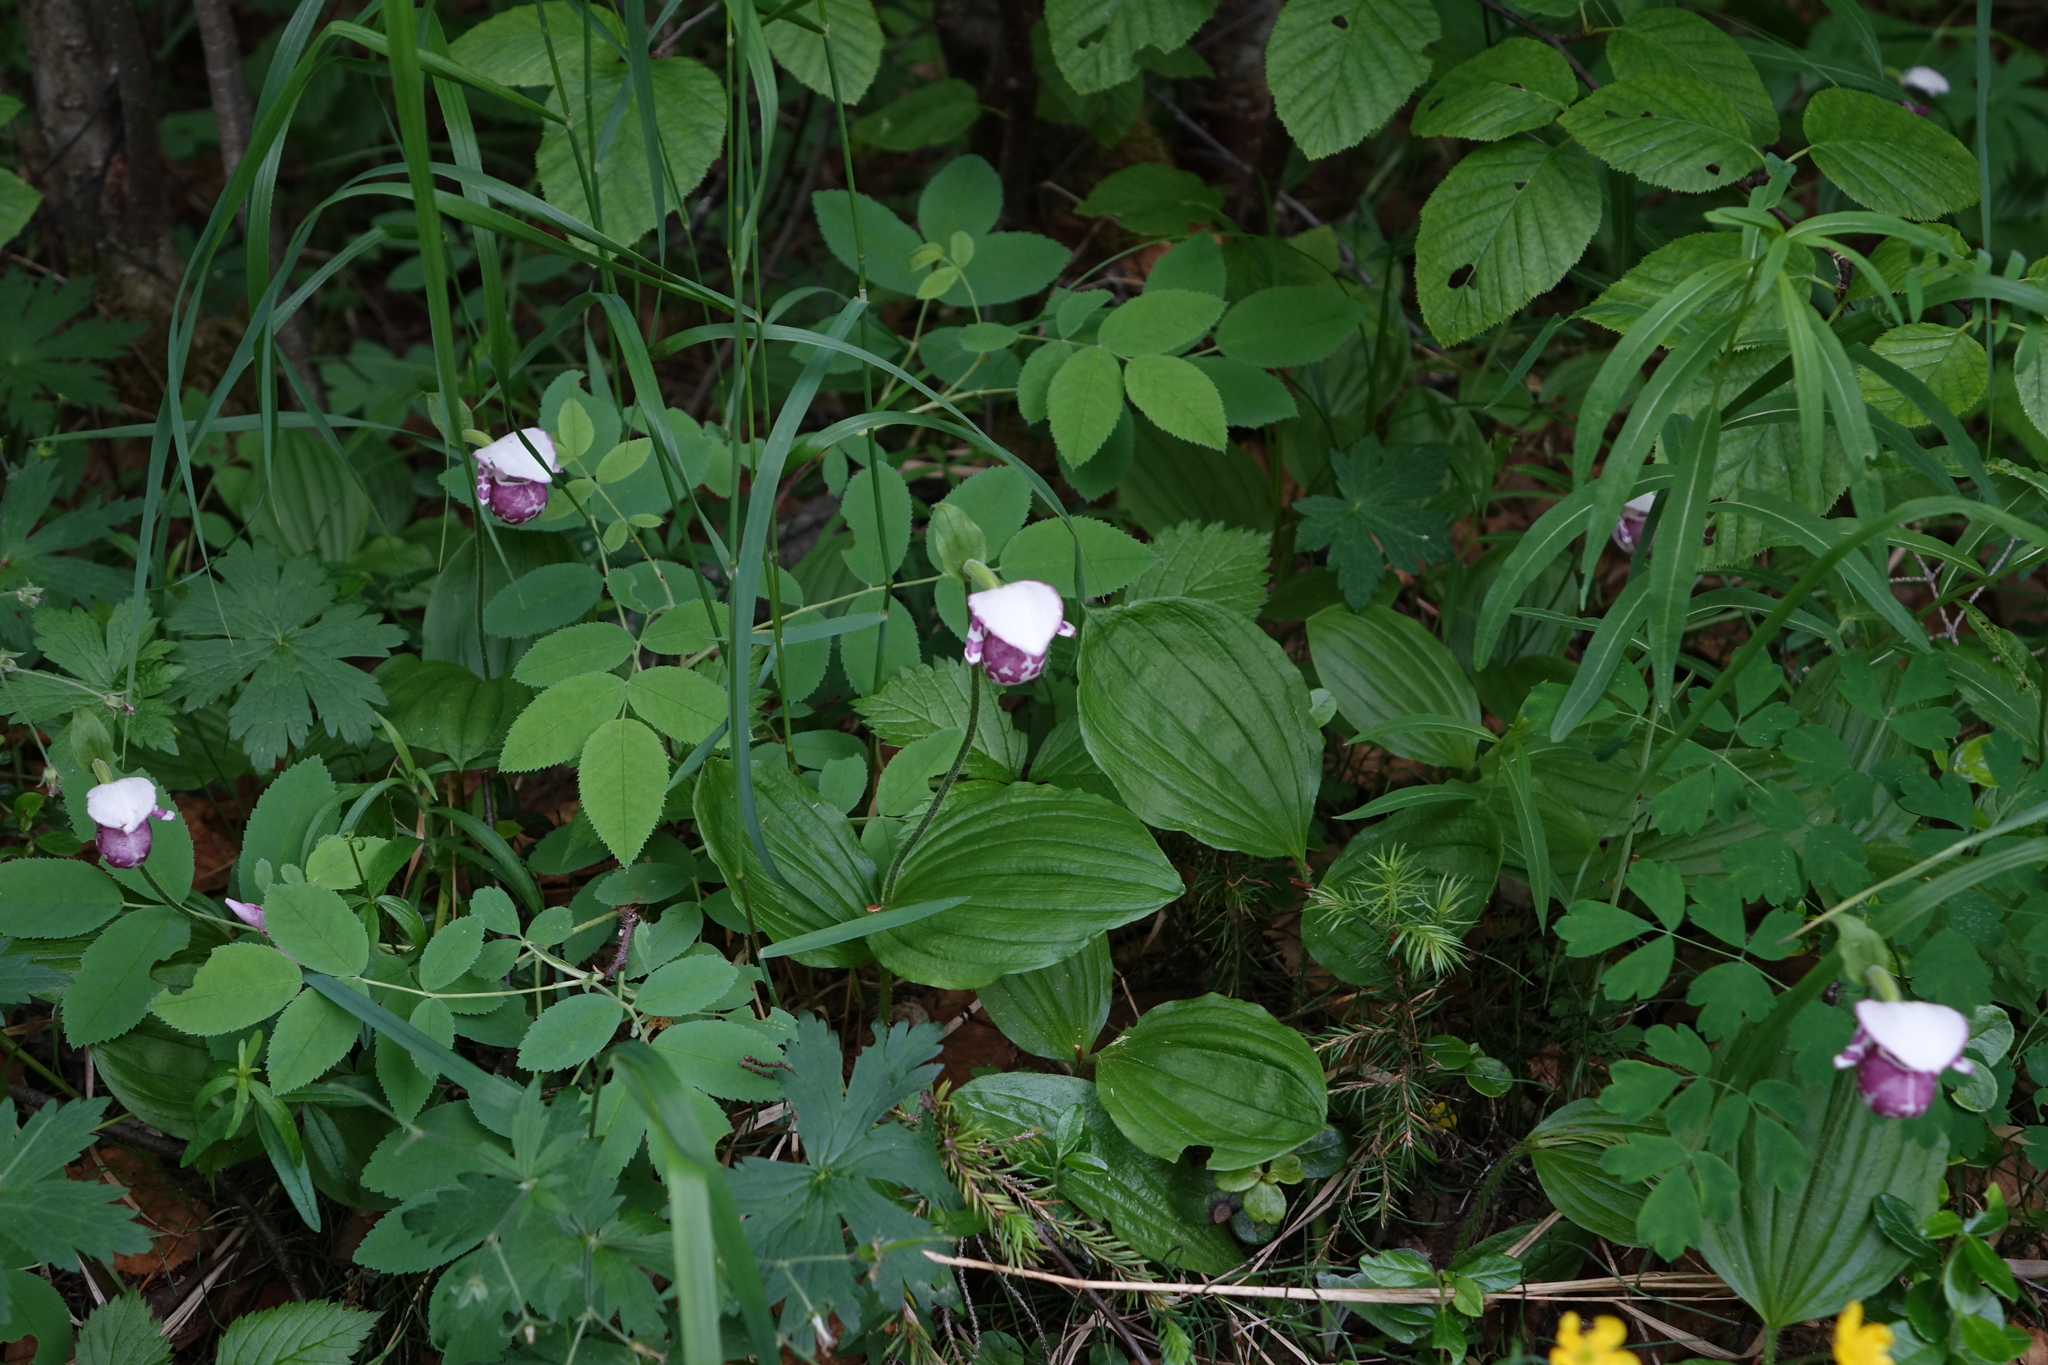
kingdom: Plantae
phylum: Tracheophyta
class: Liliopsida
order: Asparagales
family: Orchidaceae
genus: Cypripedium
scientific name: Cypripedium guttatum
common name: Pink lady slipper
